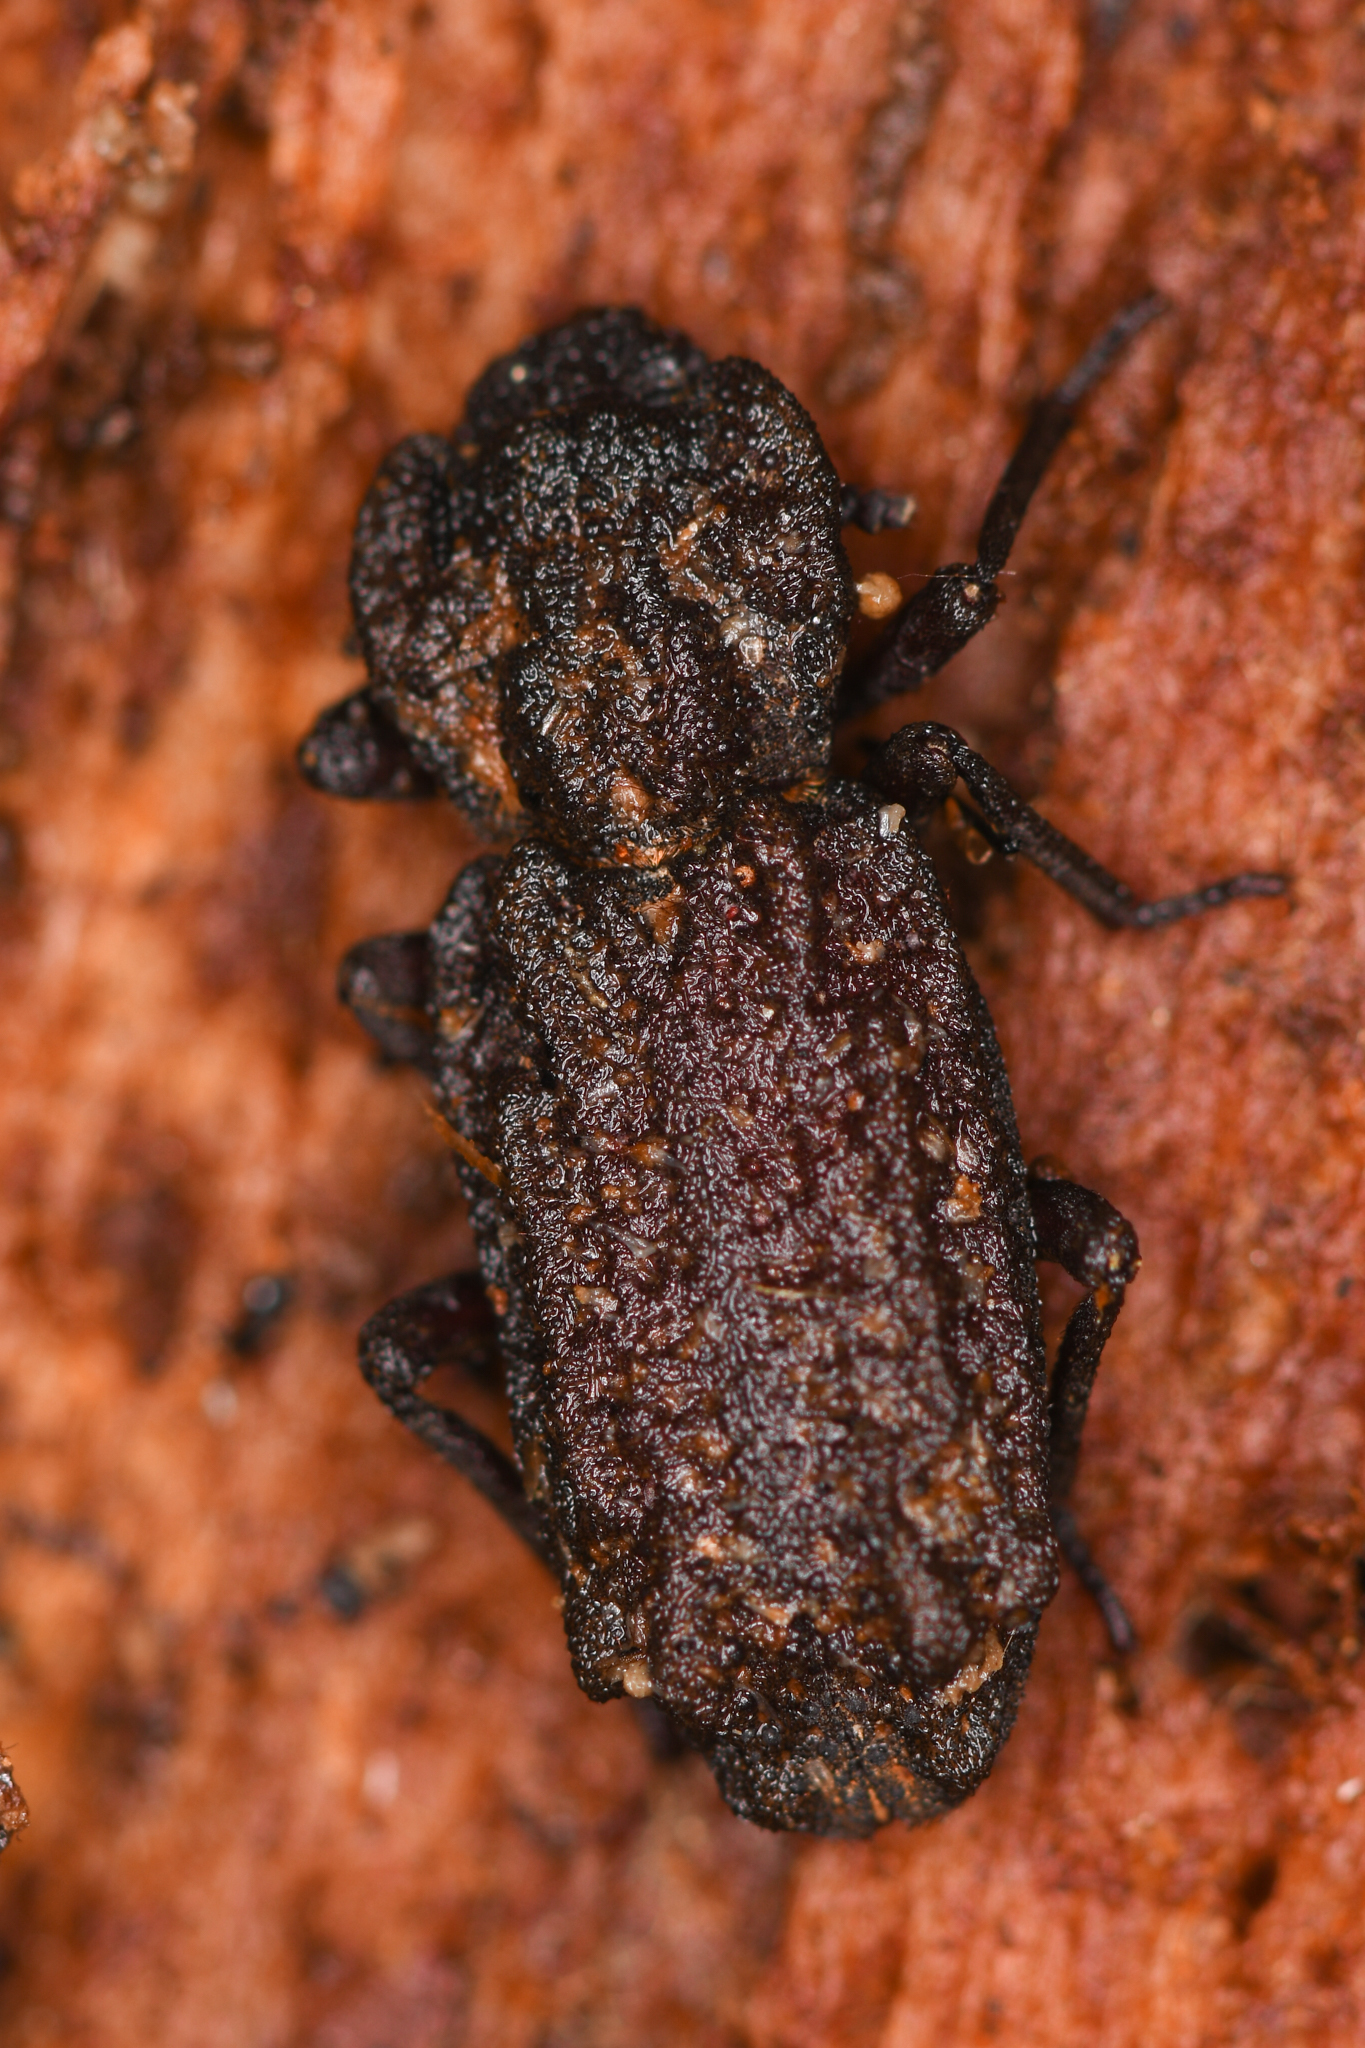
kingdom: Animalia
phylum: Arthropoda
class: Insecta
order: Coleoptera
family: Zopheridae
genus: Phellopsis
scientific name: Phellopsis porcata
